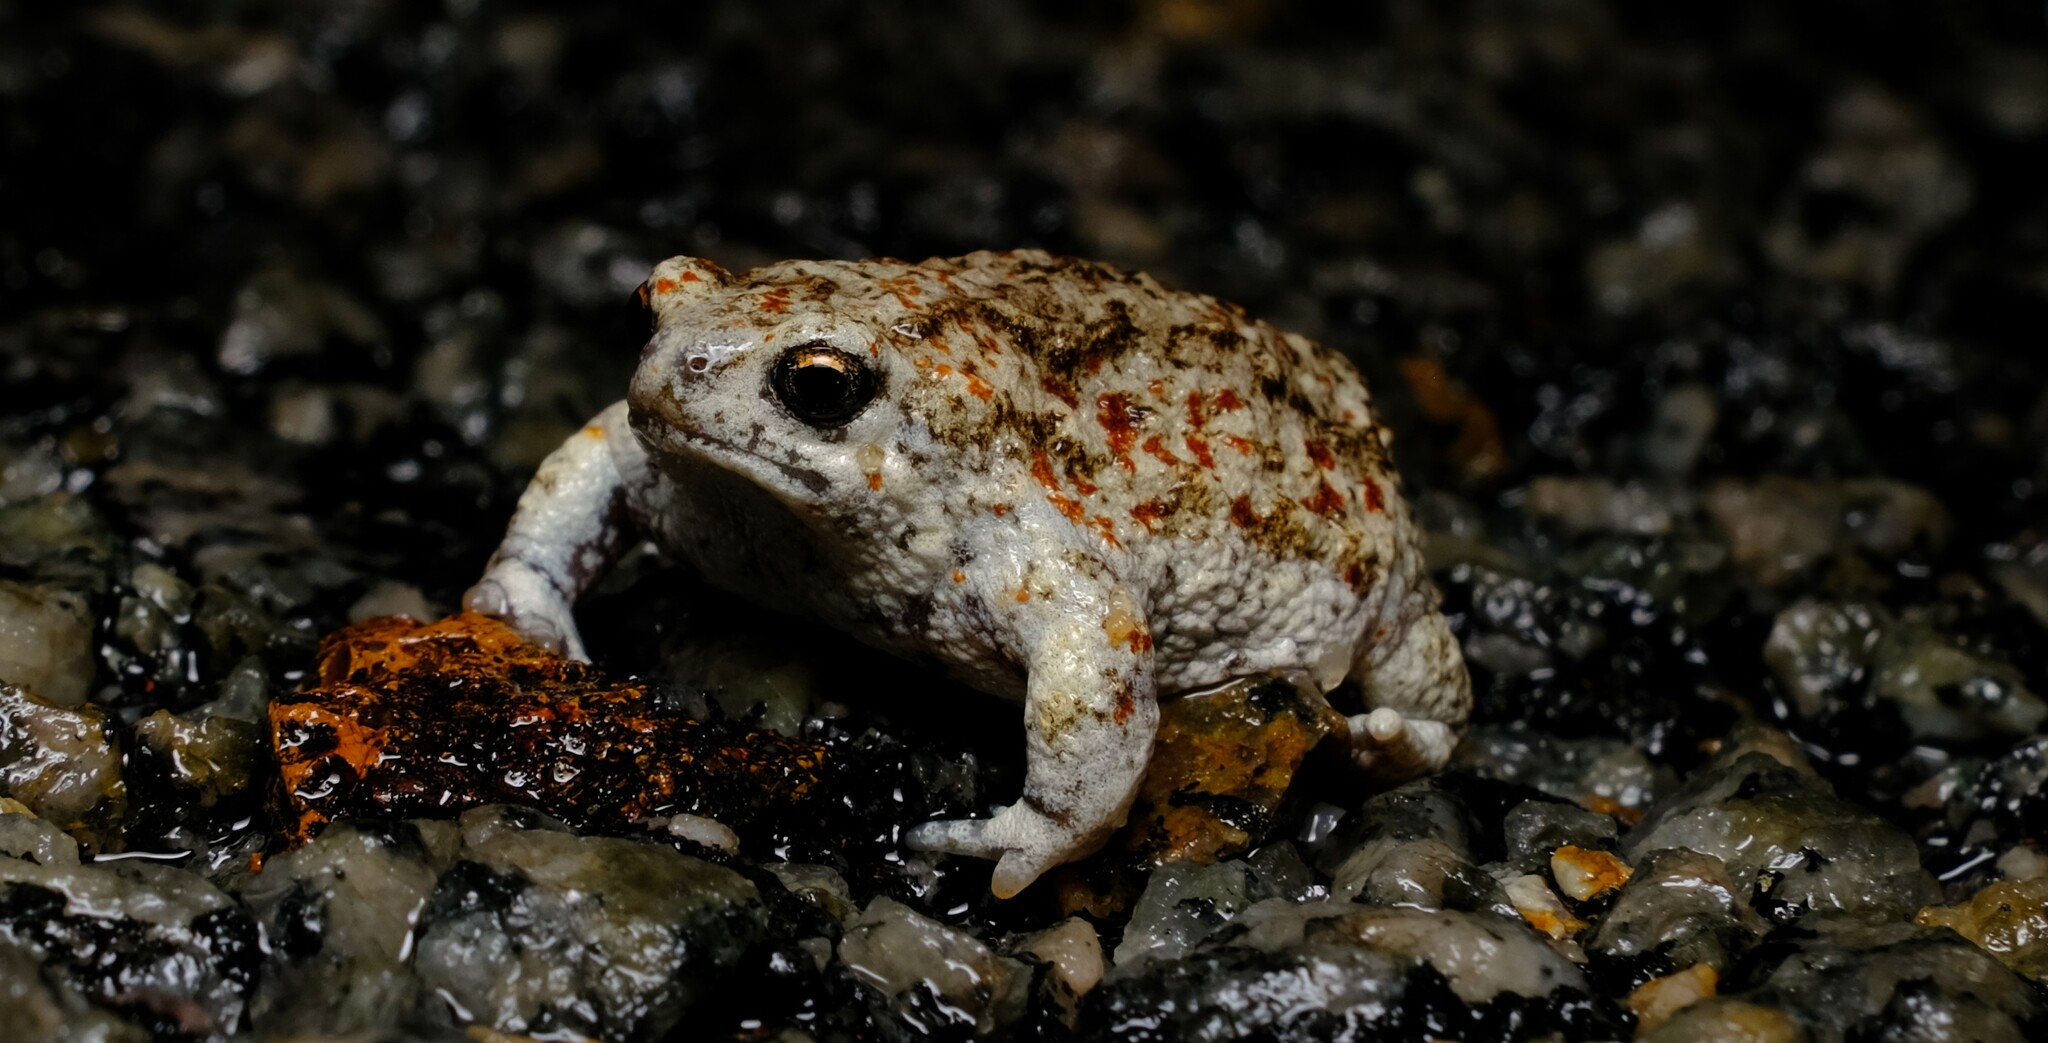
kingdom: Animalia
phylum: Chordata
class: Amphibia
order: Anura
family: Myobatrachidae
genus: Arenophryne
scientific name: Arenophryne xiphorhyncha
